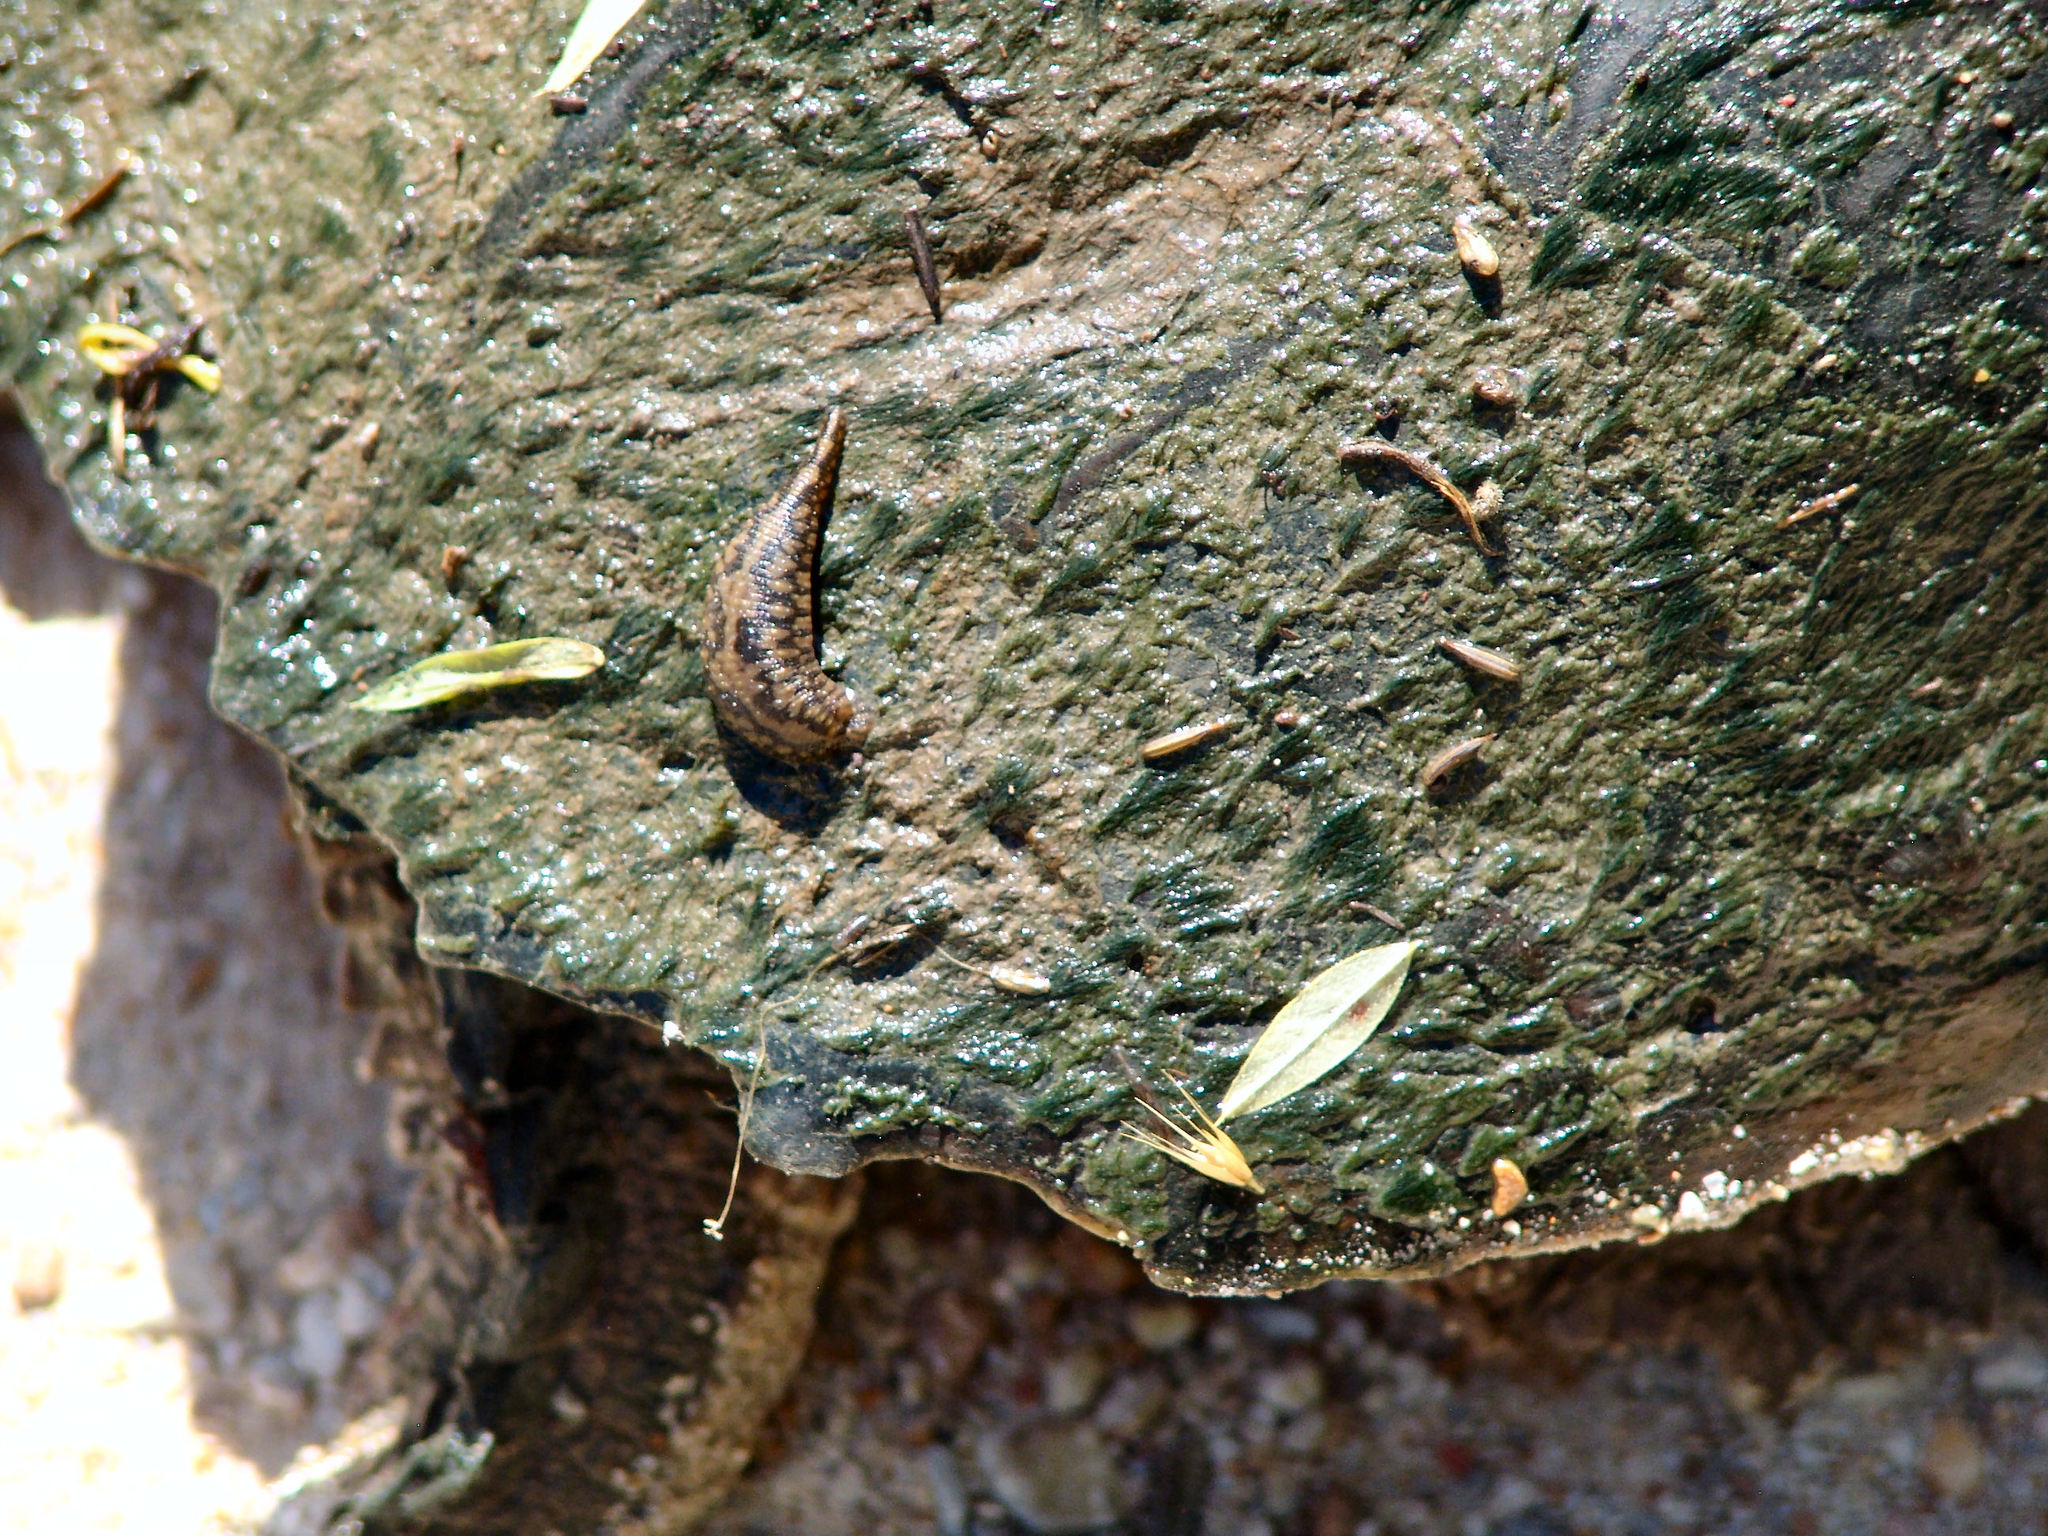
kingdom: Animalia
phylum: Annelida
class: Clitellata
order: Rhynchobdellida
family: Glossiphoniidae
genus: Placobdella
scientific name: Placobdella parasitica
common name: Smooth turtle leech
